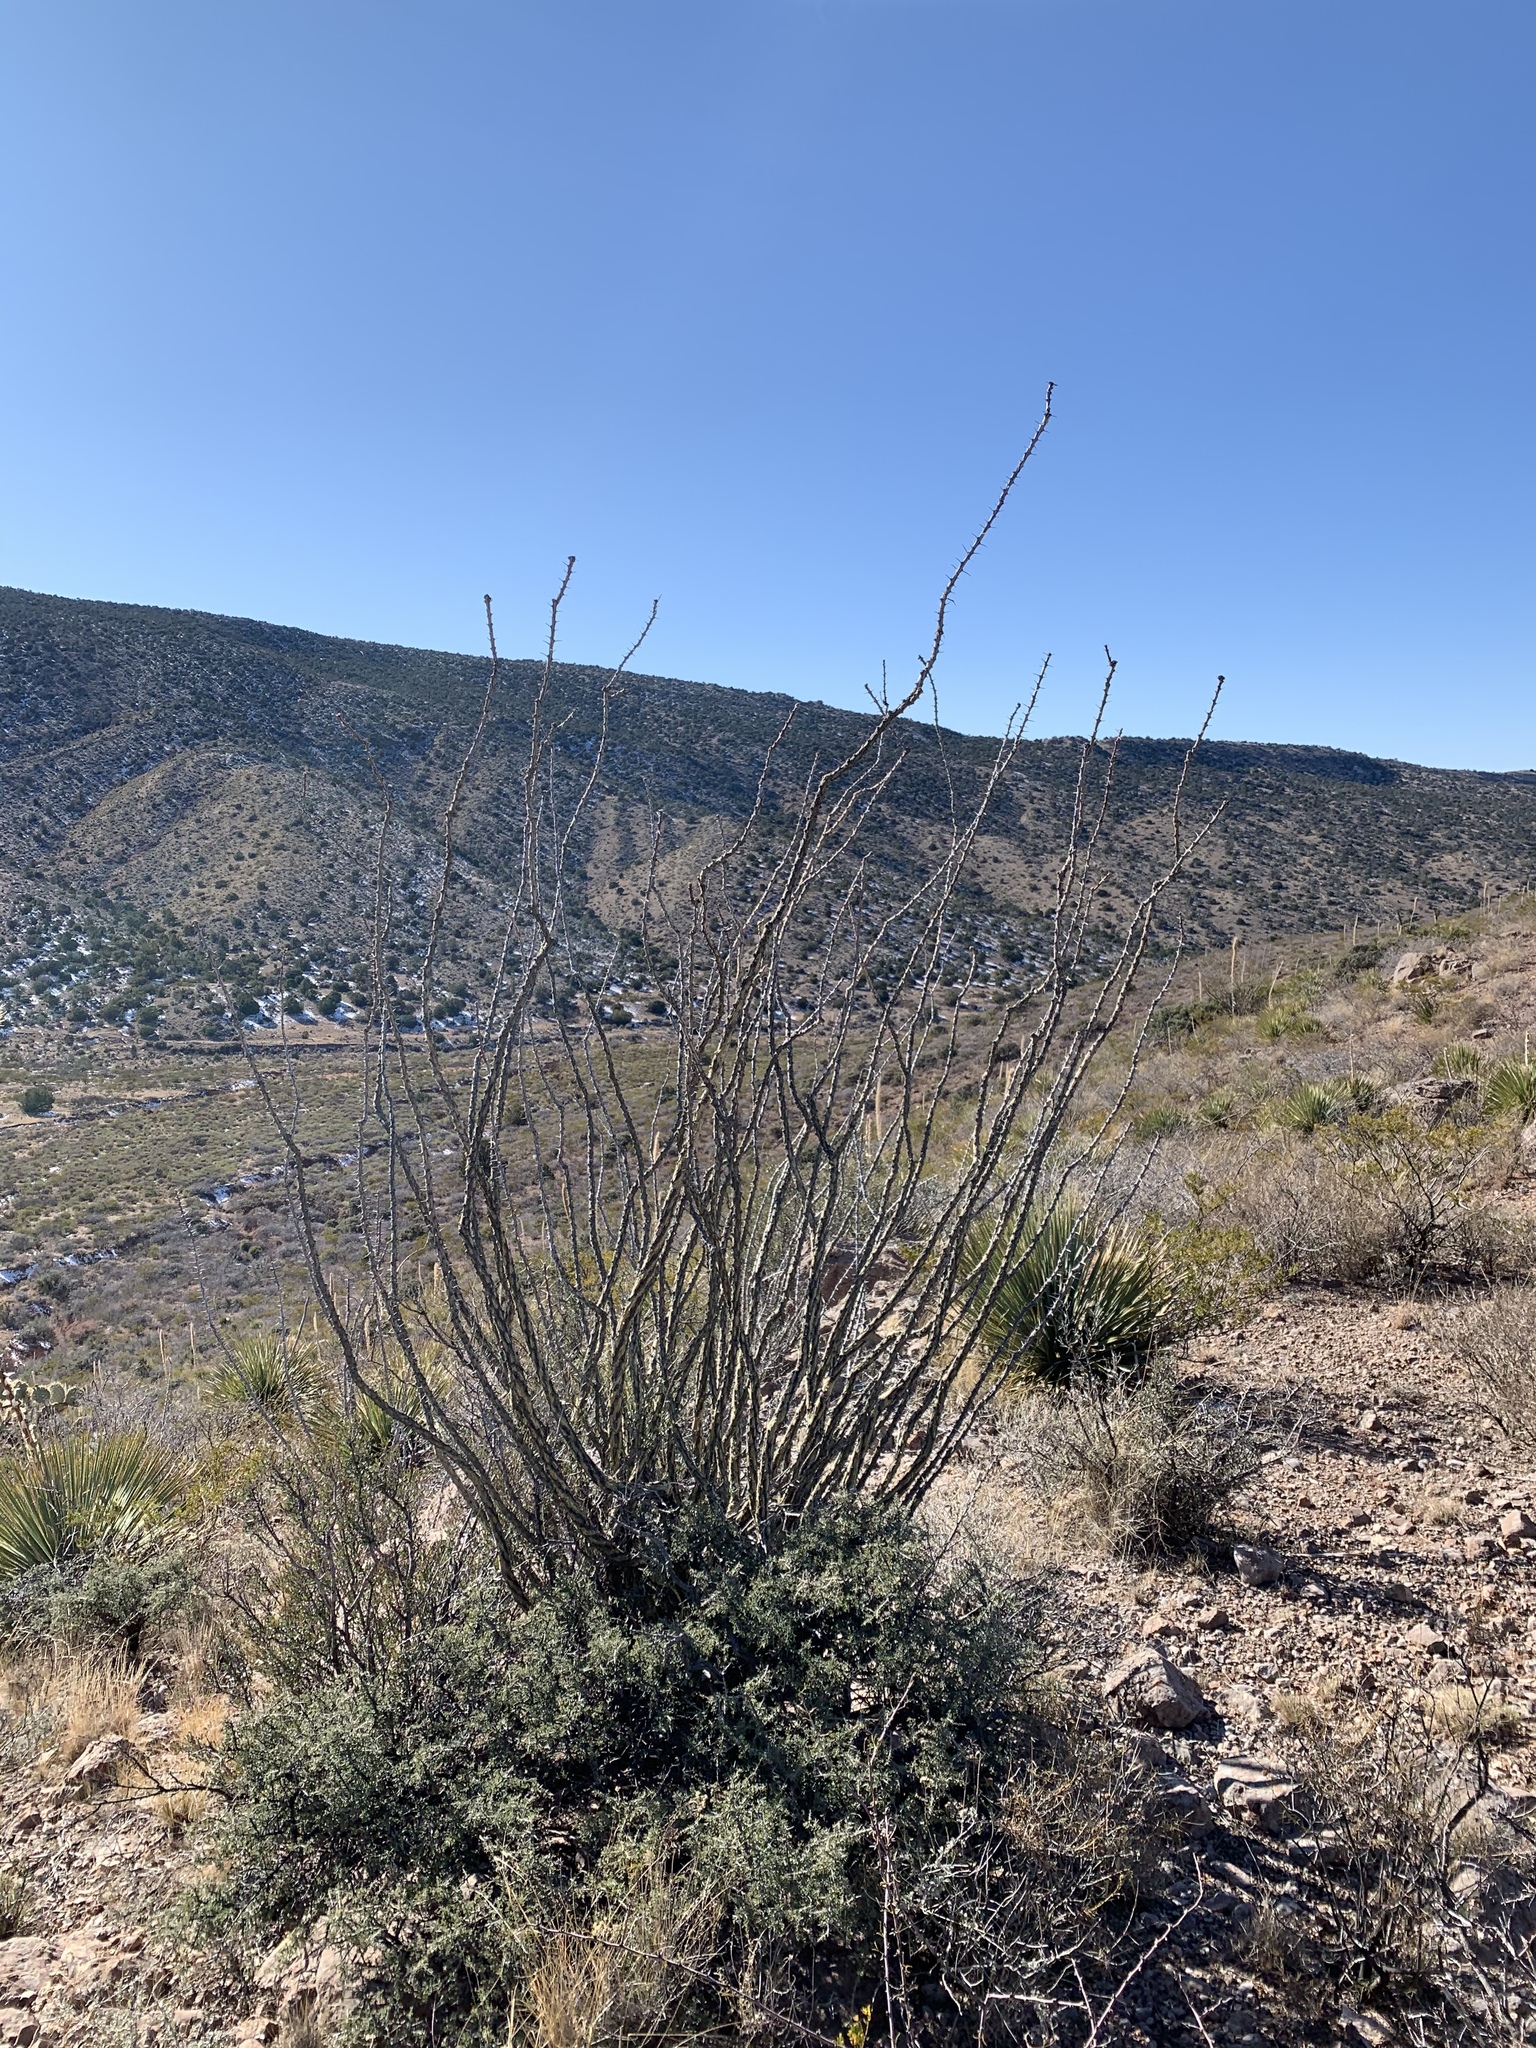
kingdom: Plantae
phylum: Tracheophyta
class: Magnoliopsida
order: Ericales
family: Fouquieriaceae
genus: Fouquieria
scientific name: Fouquieria splendens
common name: Vine-cactus
